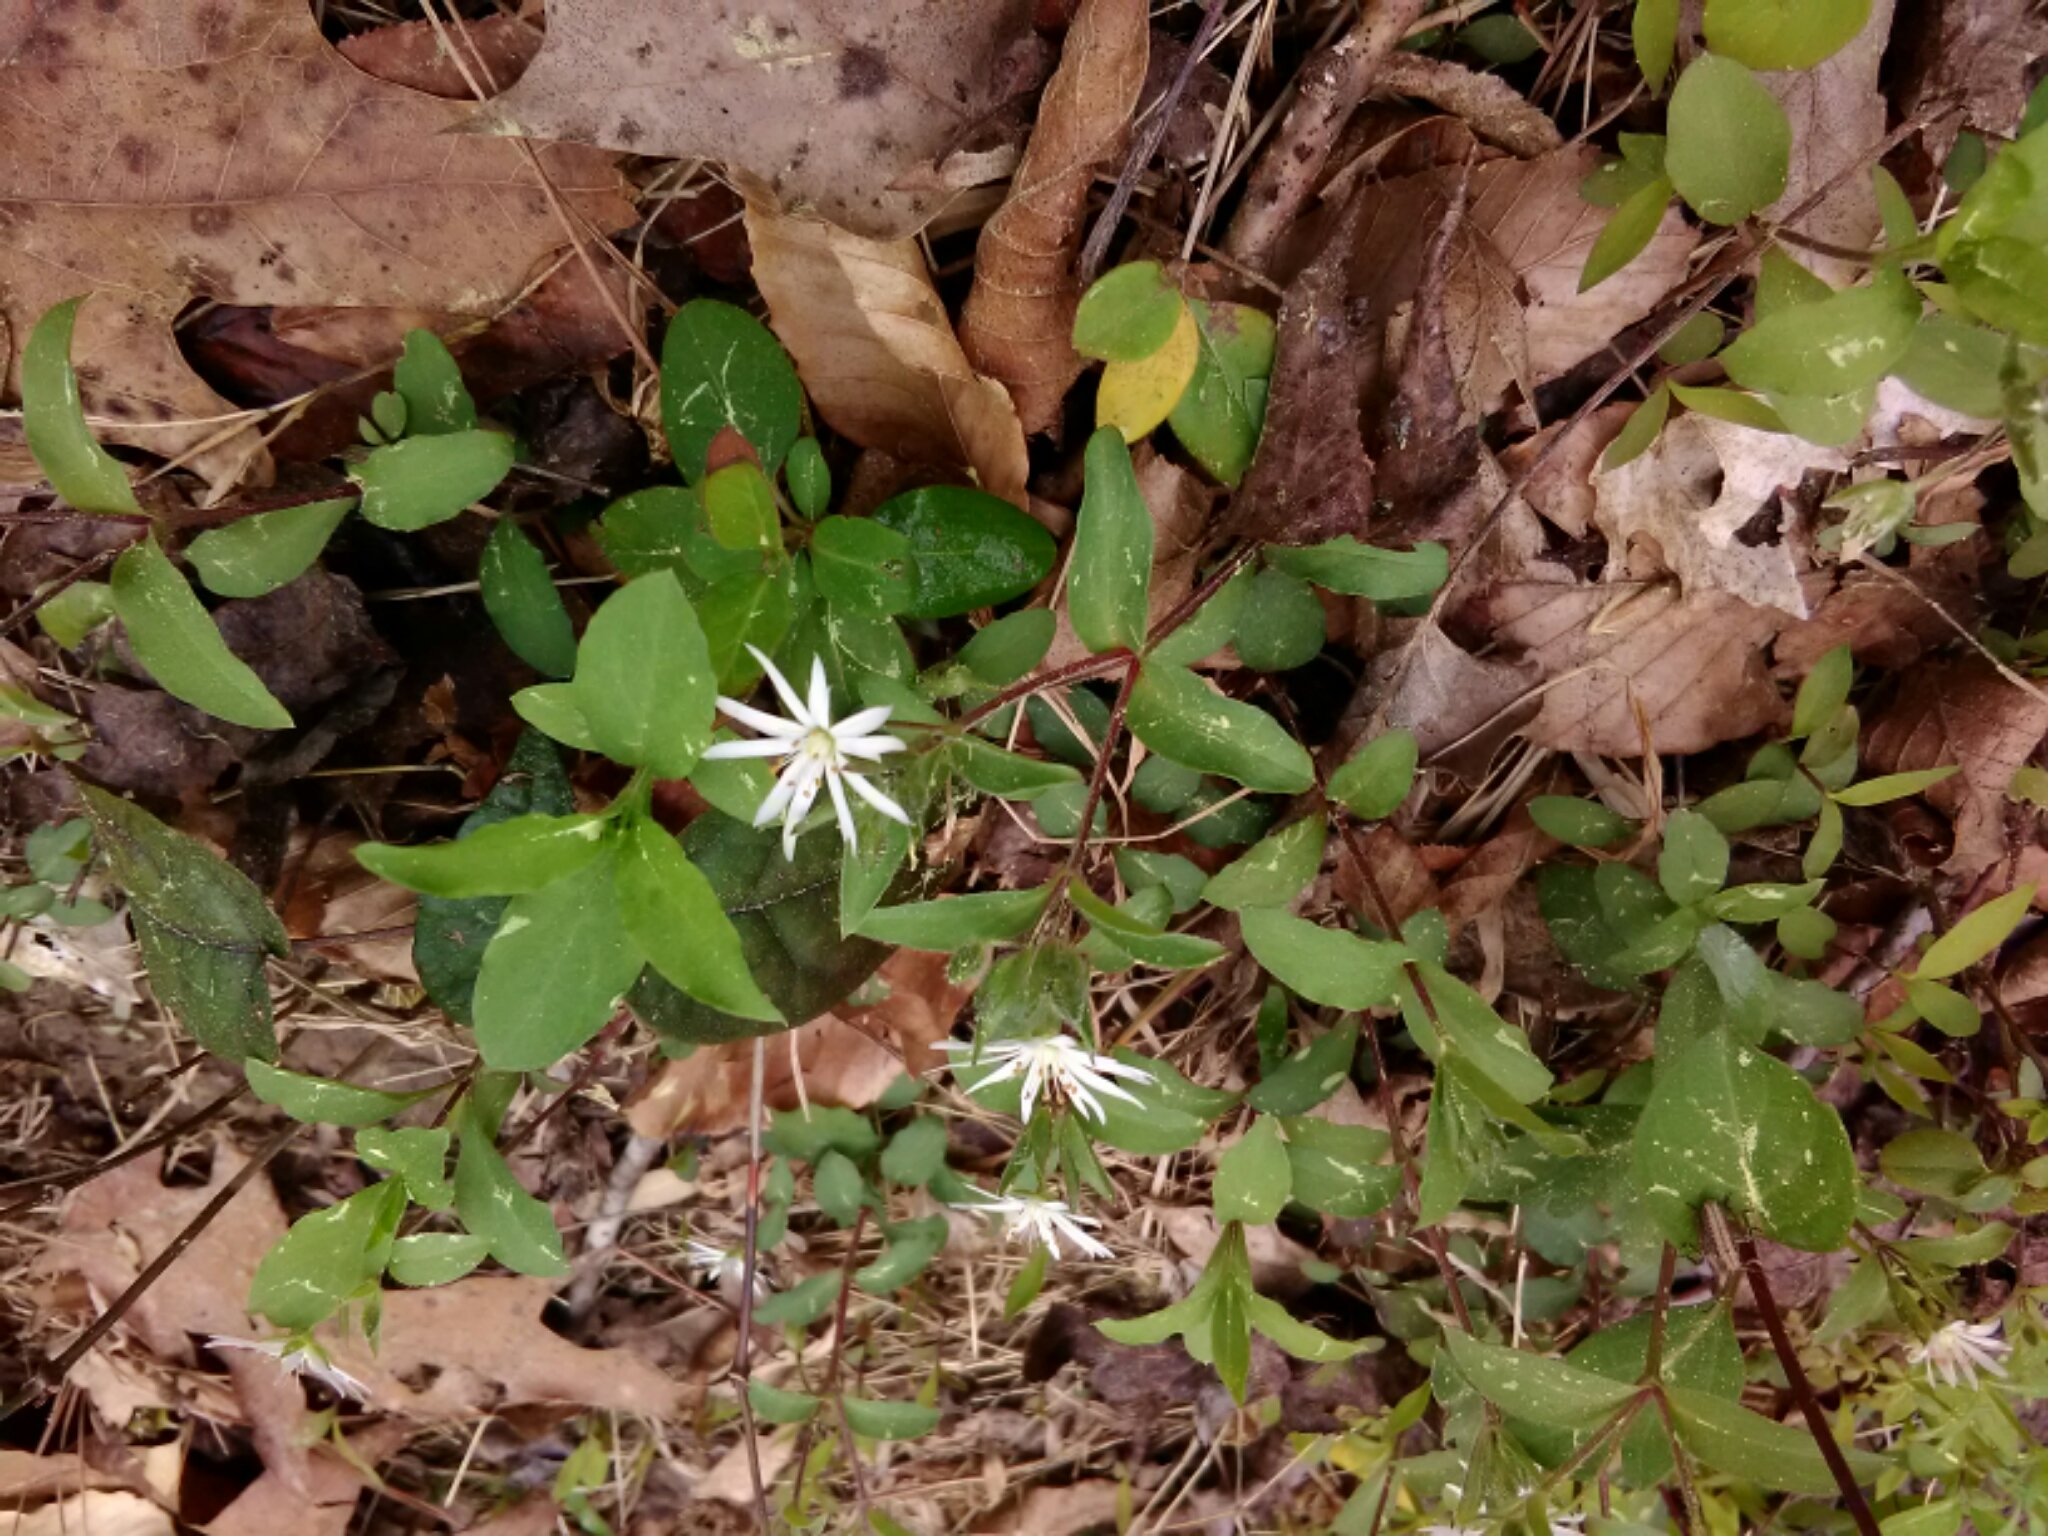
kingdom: Plantae
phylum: Tracheophyta
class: Magnoliopsida
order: Caryophyllales
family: Caryophyllaceae
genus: Stellaria
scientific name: Stellaria pubera
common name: Star chickweed
